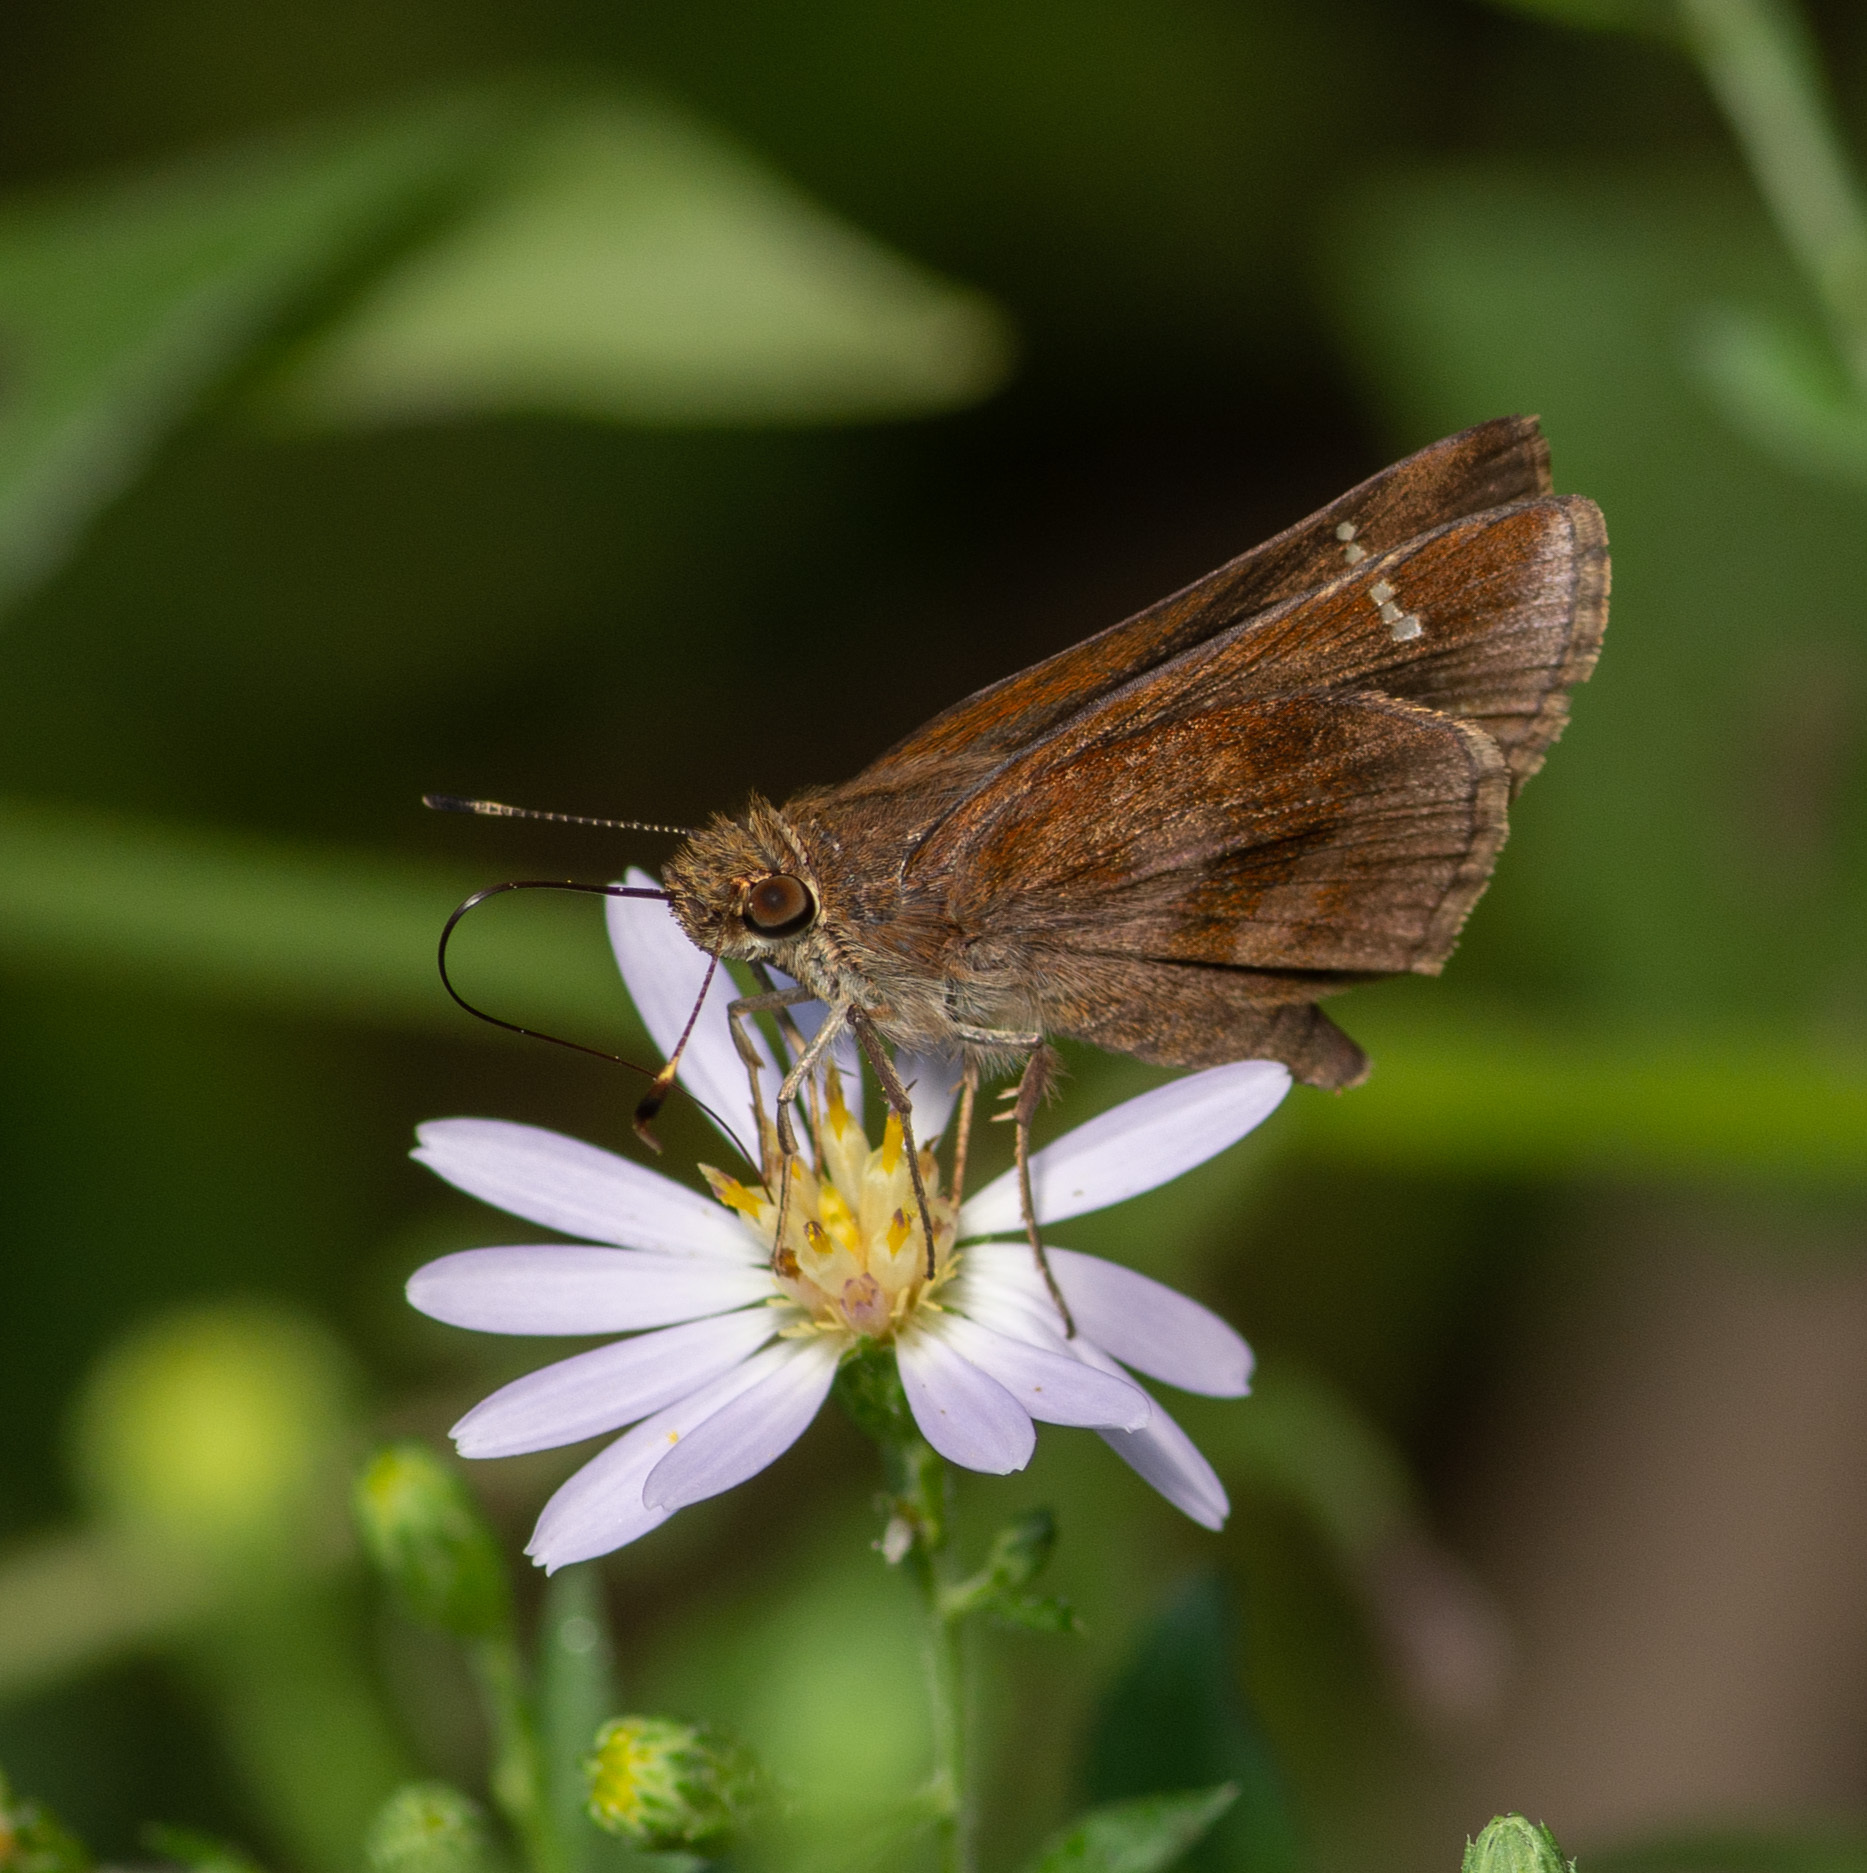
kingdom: Animalia
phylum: Arthropoda
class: Insecta
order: Lepidoptera
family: Hesperiidae
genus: Lerema
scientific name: Lerema accius
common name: Clouded skipper
